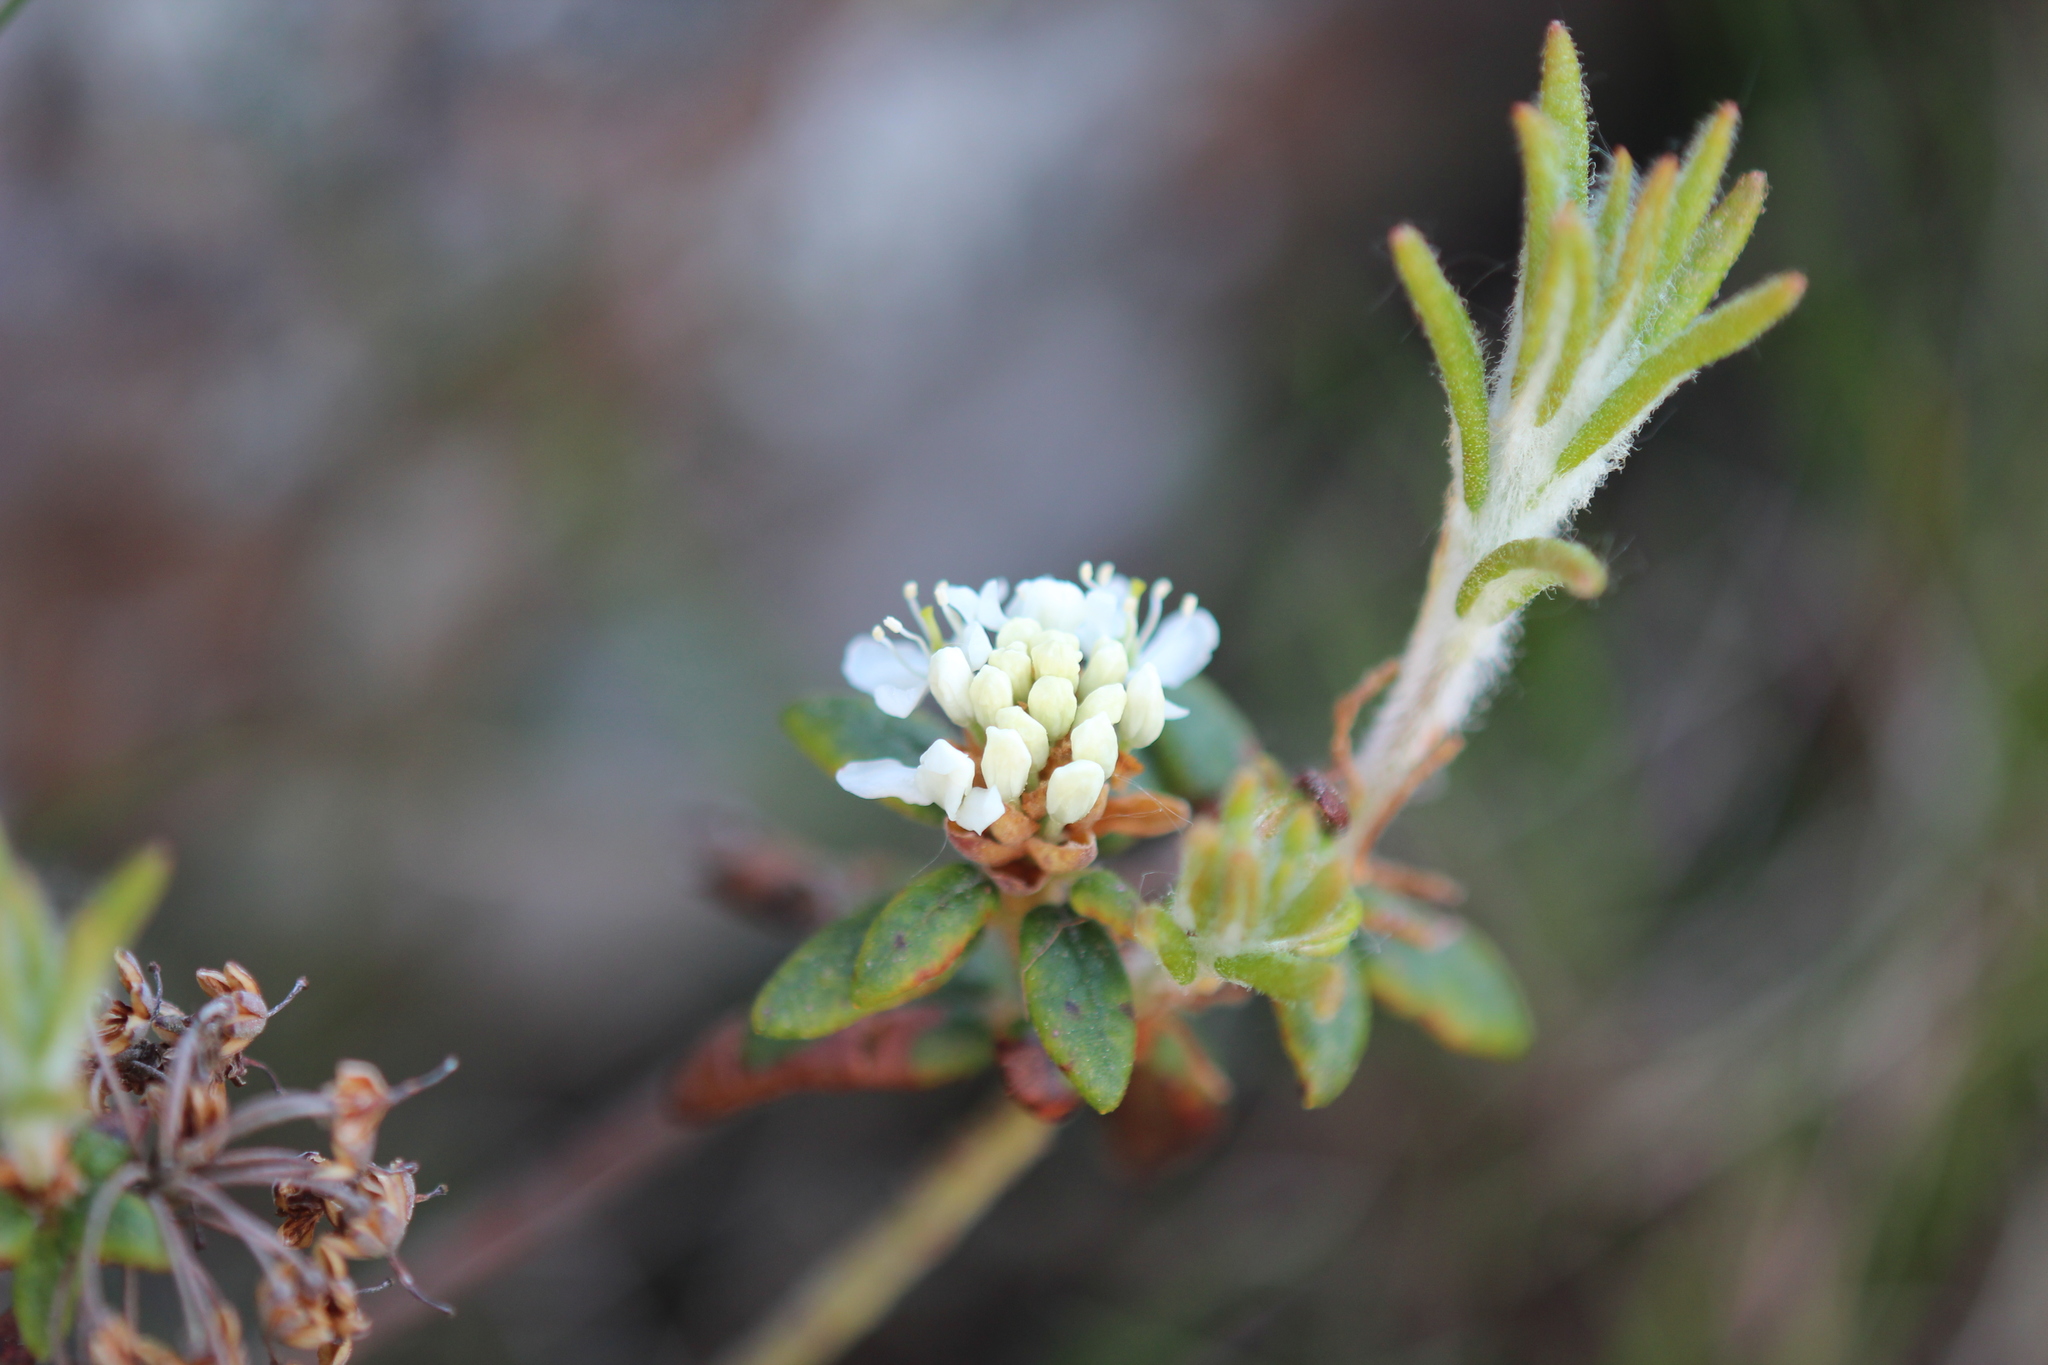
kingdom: Plantae
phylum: Tracheophyta
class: Magnoliopsida
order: Ericales
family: Ericaceae
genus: Rhododendron
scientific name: Rhododendron groenlandicum
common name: Bog labrador tea
